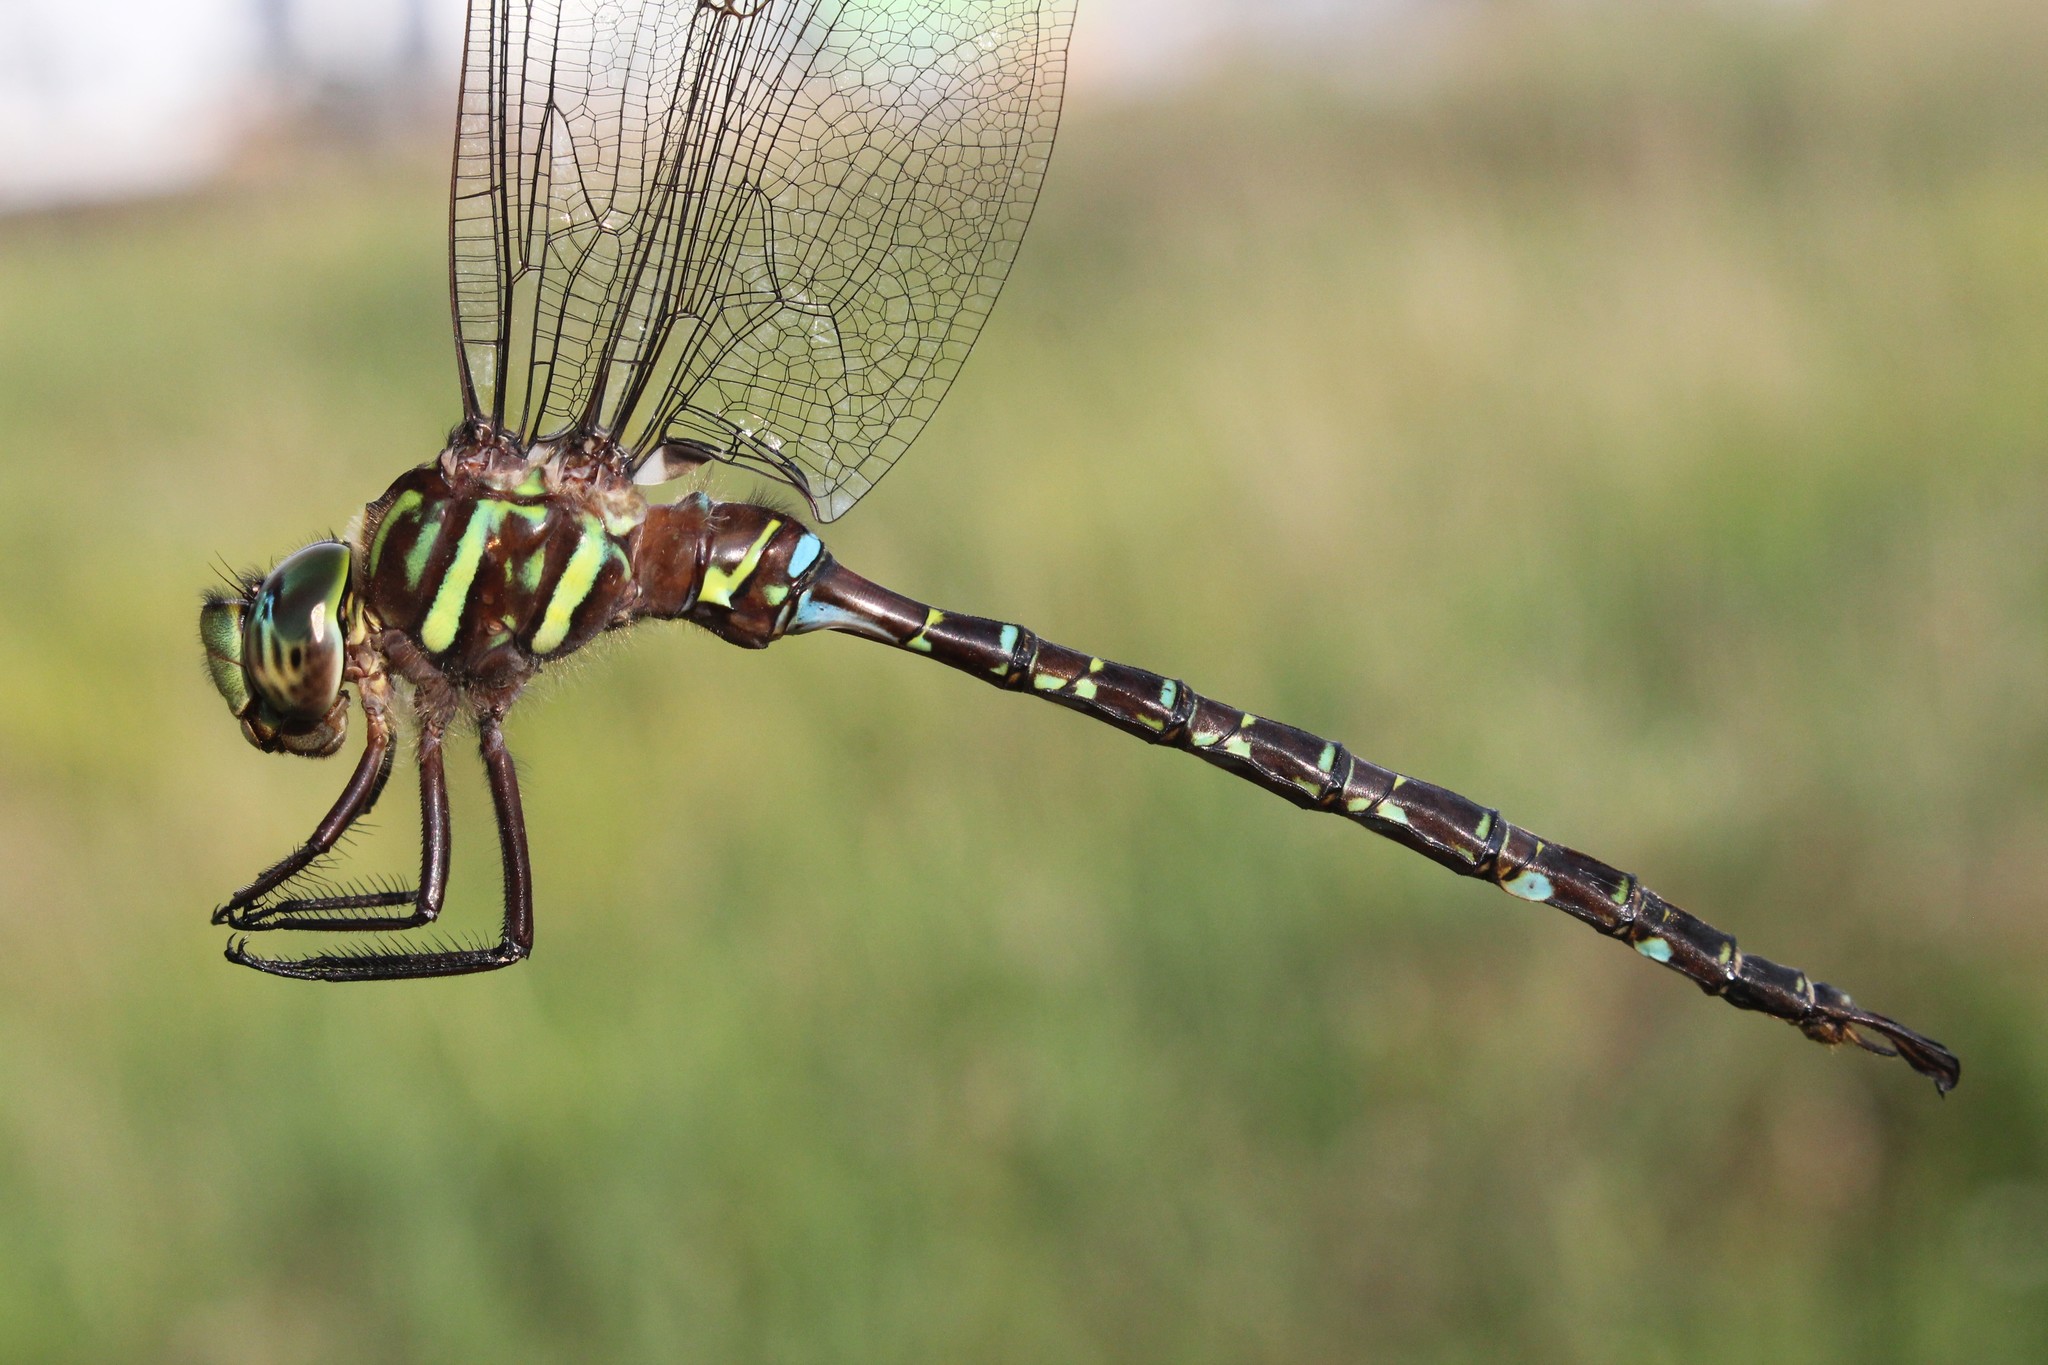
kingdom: Animalia
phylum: Arthropoda
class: Insecta
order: Odonata
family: Aeshnidae
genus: Aeshna
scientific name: Aeshna umbrosa
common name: Shadow darner
